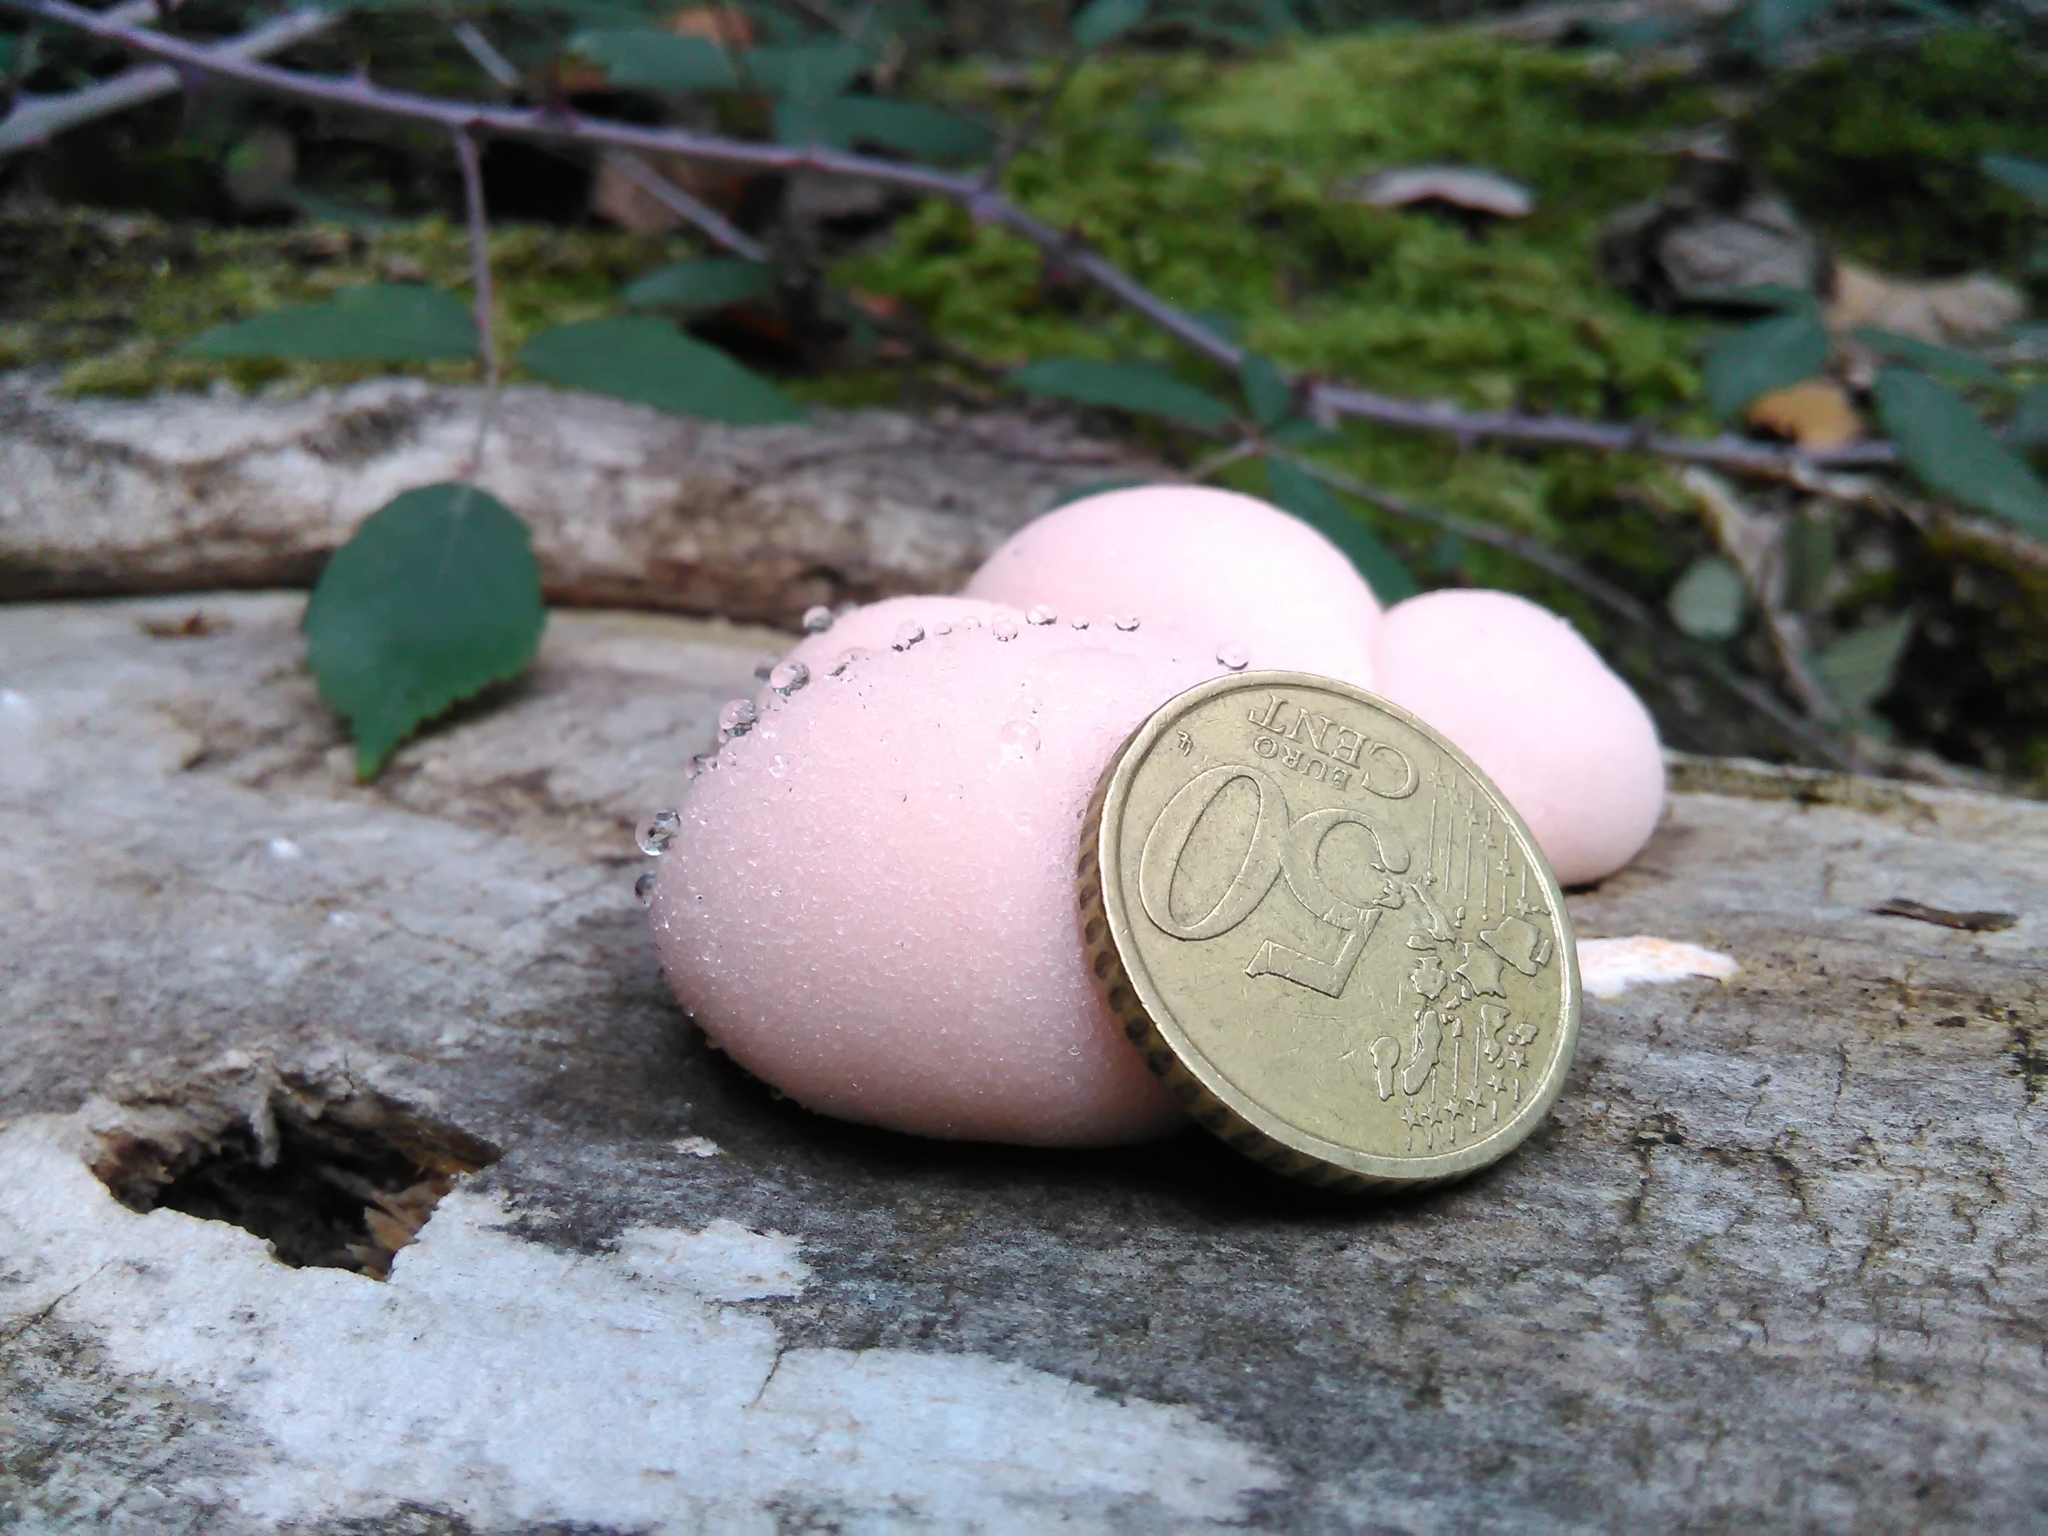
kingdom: Protozoa
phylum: Mycetozoa
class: Myxomycetes
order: Cribrariales
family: Tubiferaceae
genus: Lycogala
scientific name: Lycogala epidendrum
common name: Wolf's milk
